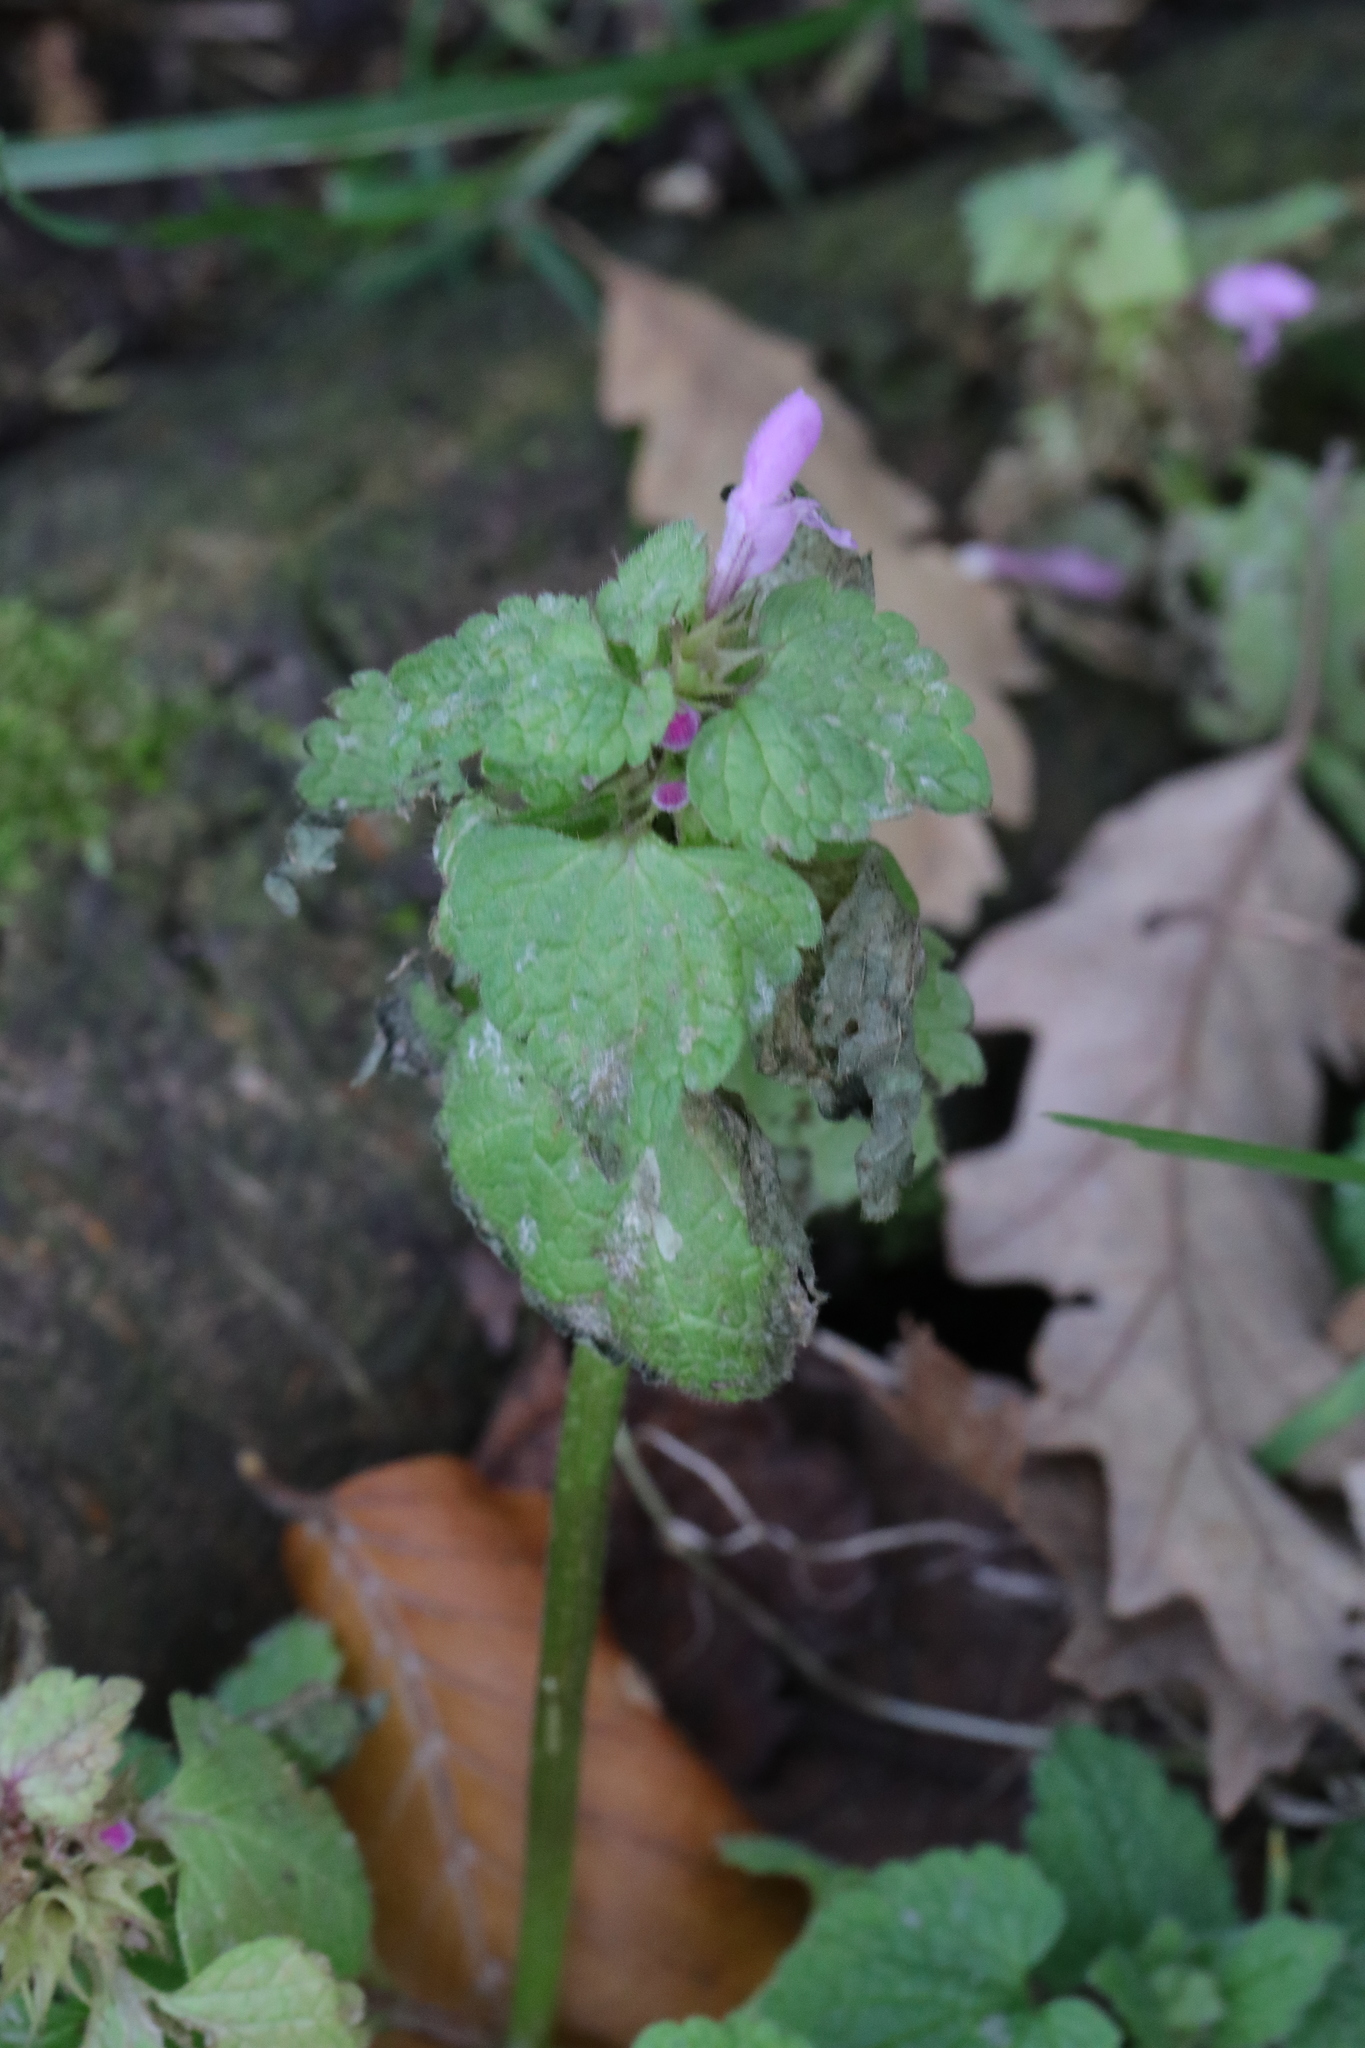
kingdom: Plantae
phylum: Tracheophyta
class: Magnoliopsida
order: Lamiales
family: Lamiaceae
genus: Lamium
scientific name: Lamium purpureum
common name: Red dead-nettle
